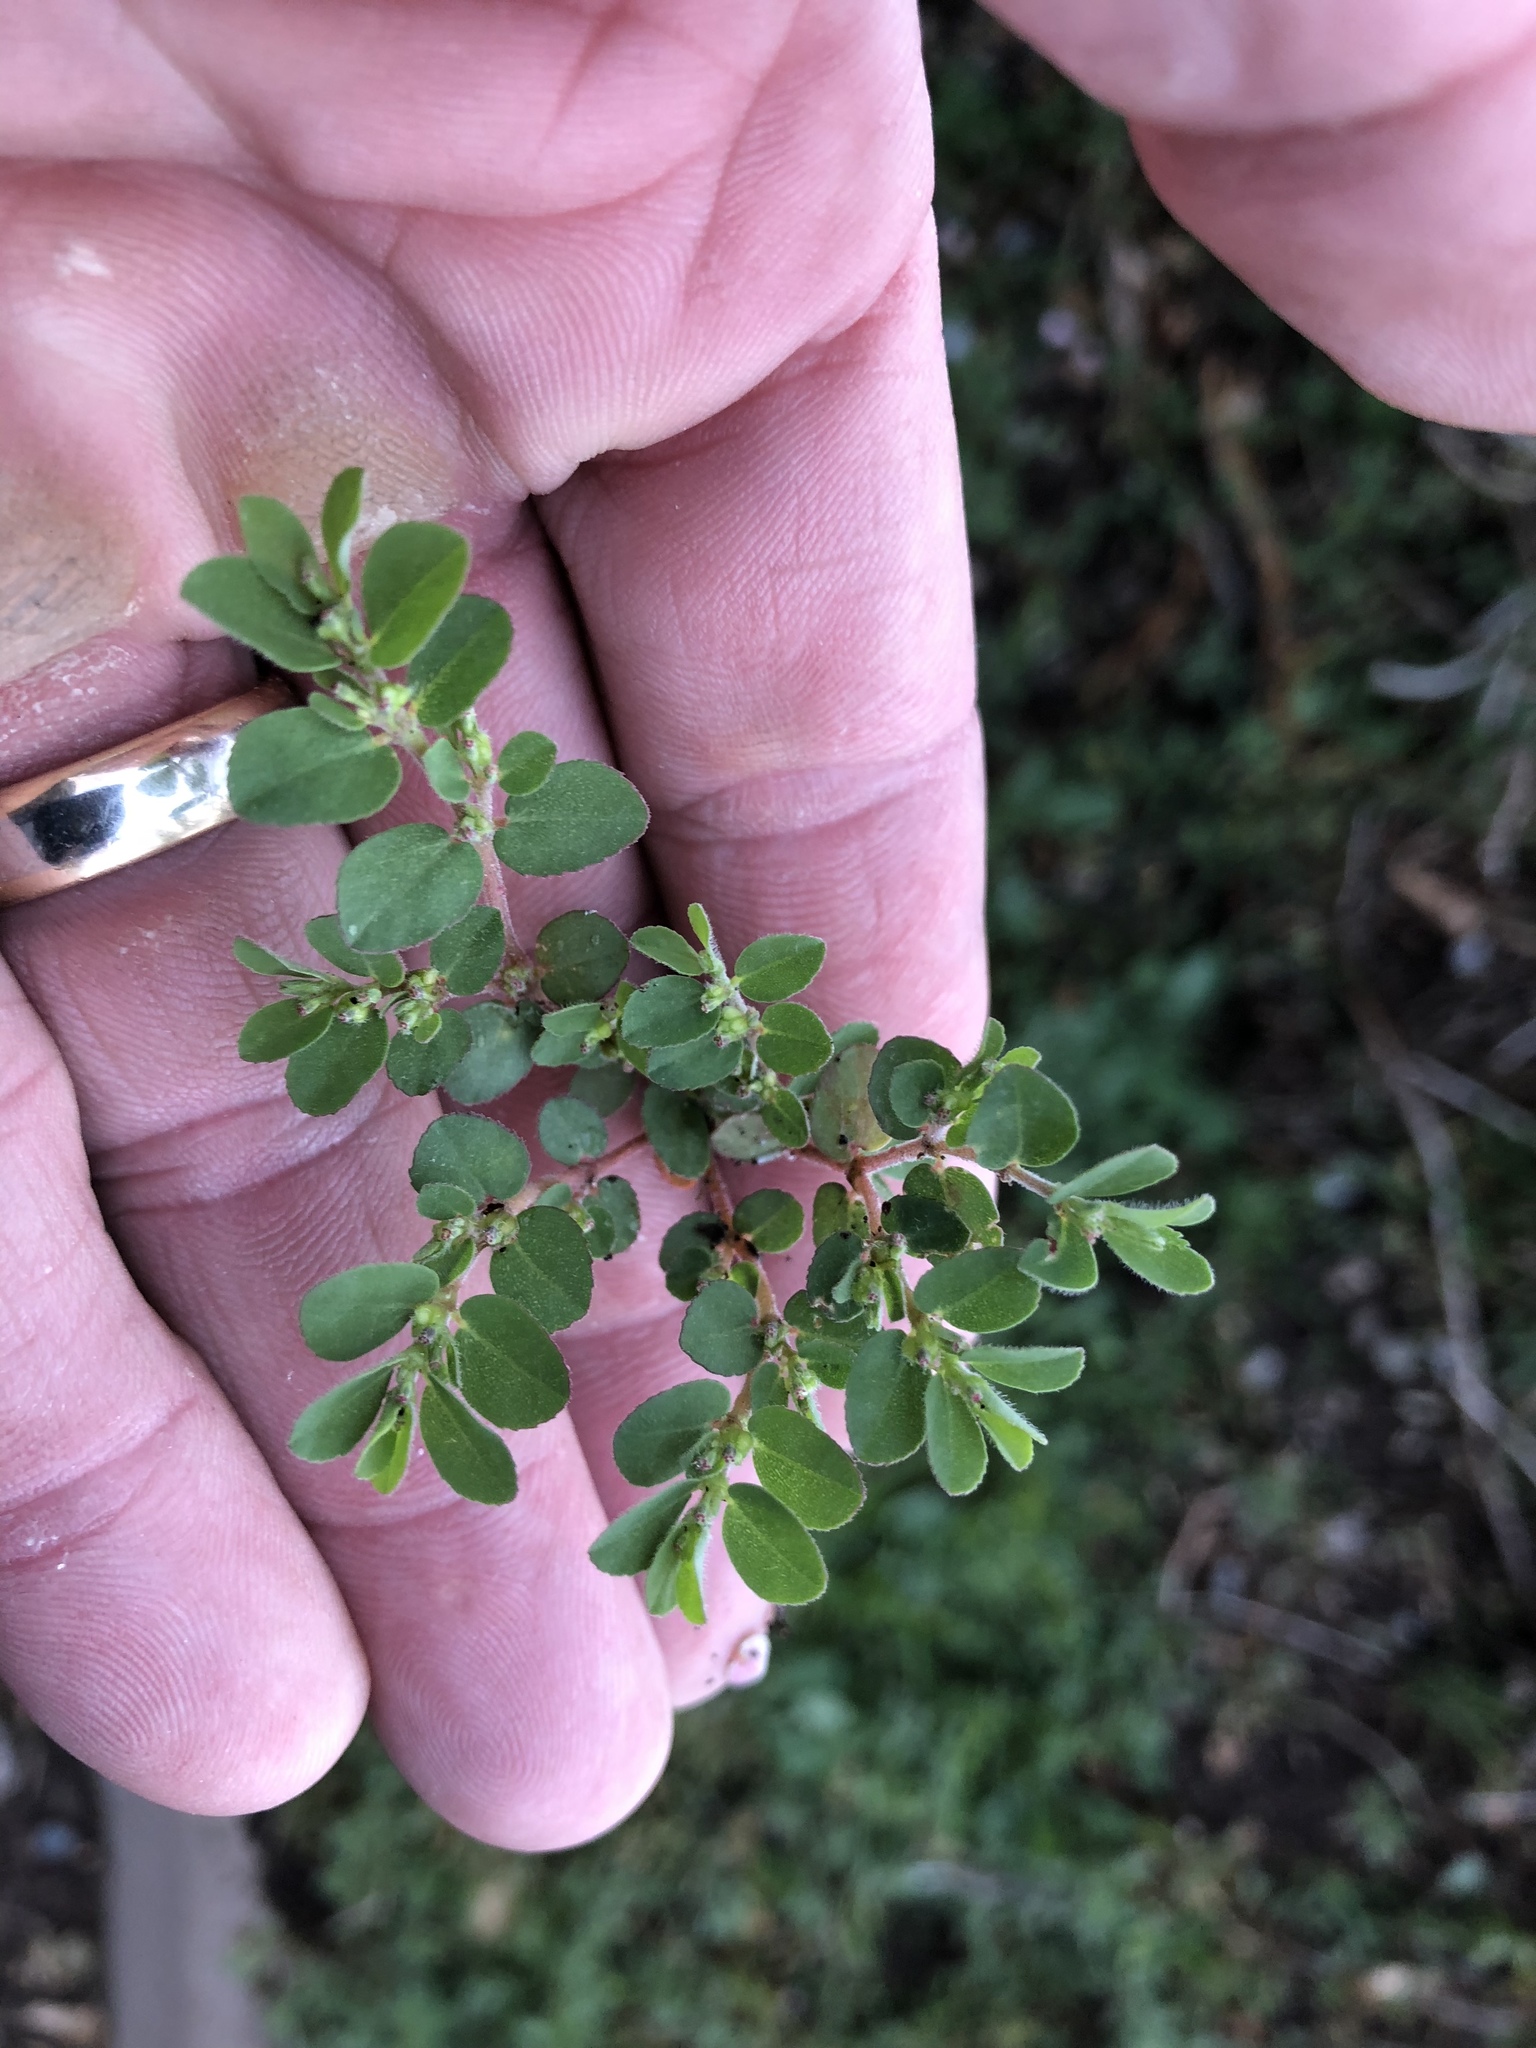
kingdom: Plantae
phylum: Tracheophyta
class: Magnoliopsida
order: Malpighiales
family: Euphorbiaceae
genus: Euphorbia
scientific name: Euphorbia prostrata
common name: Prostrate sandmat
